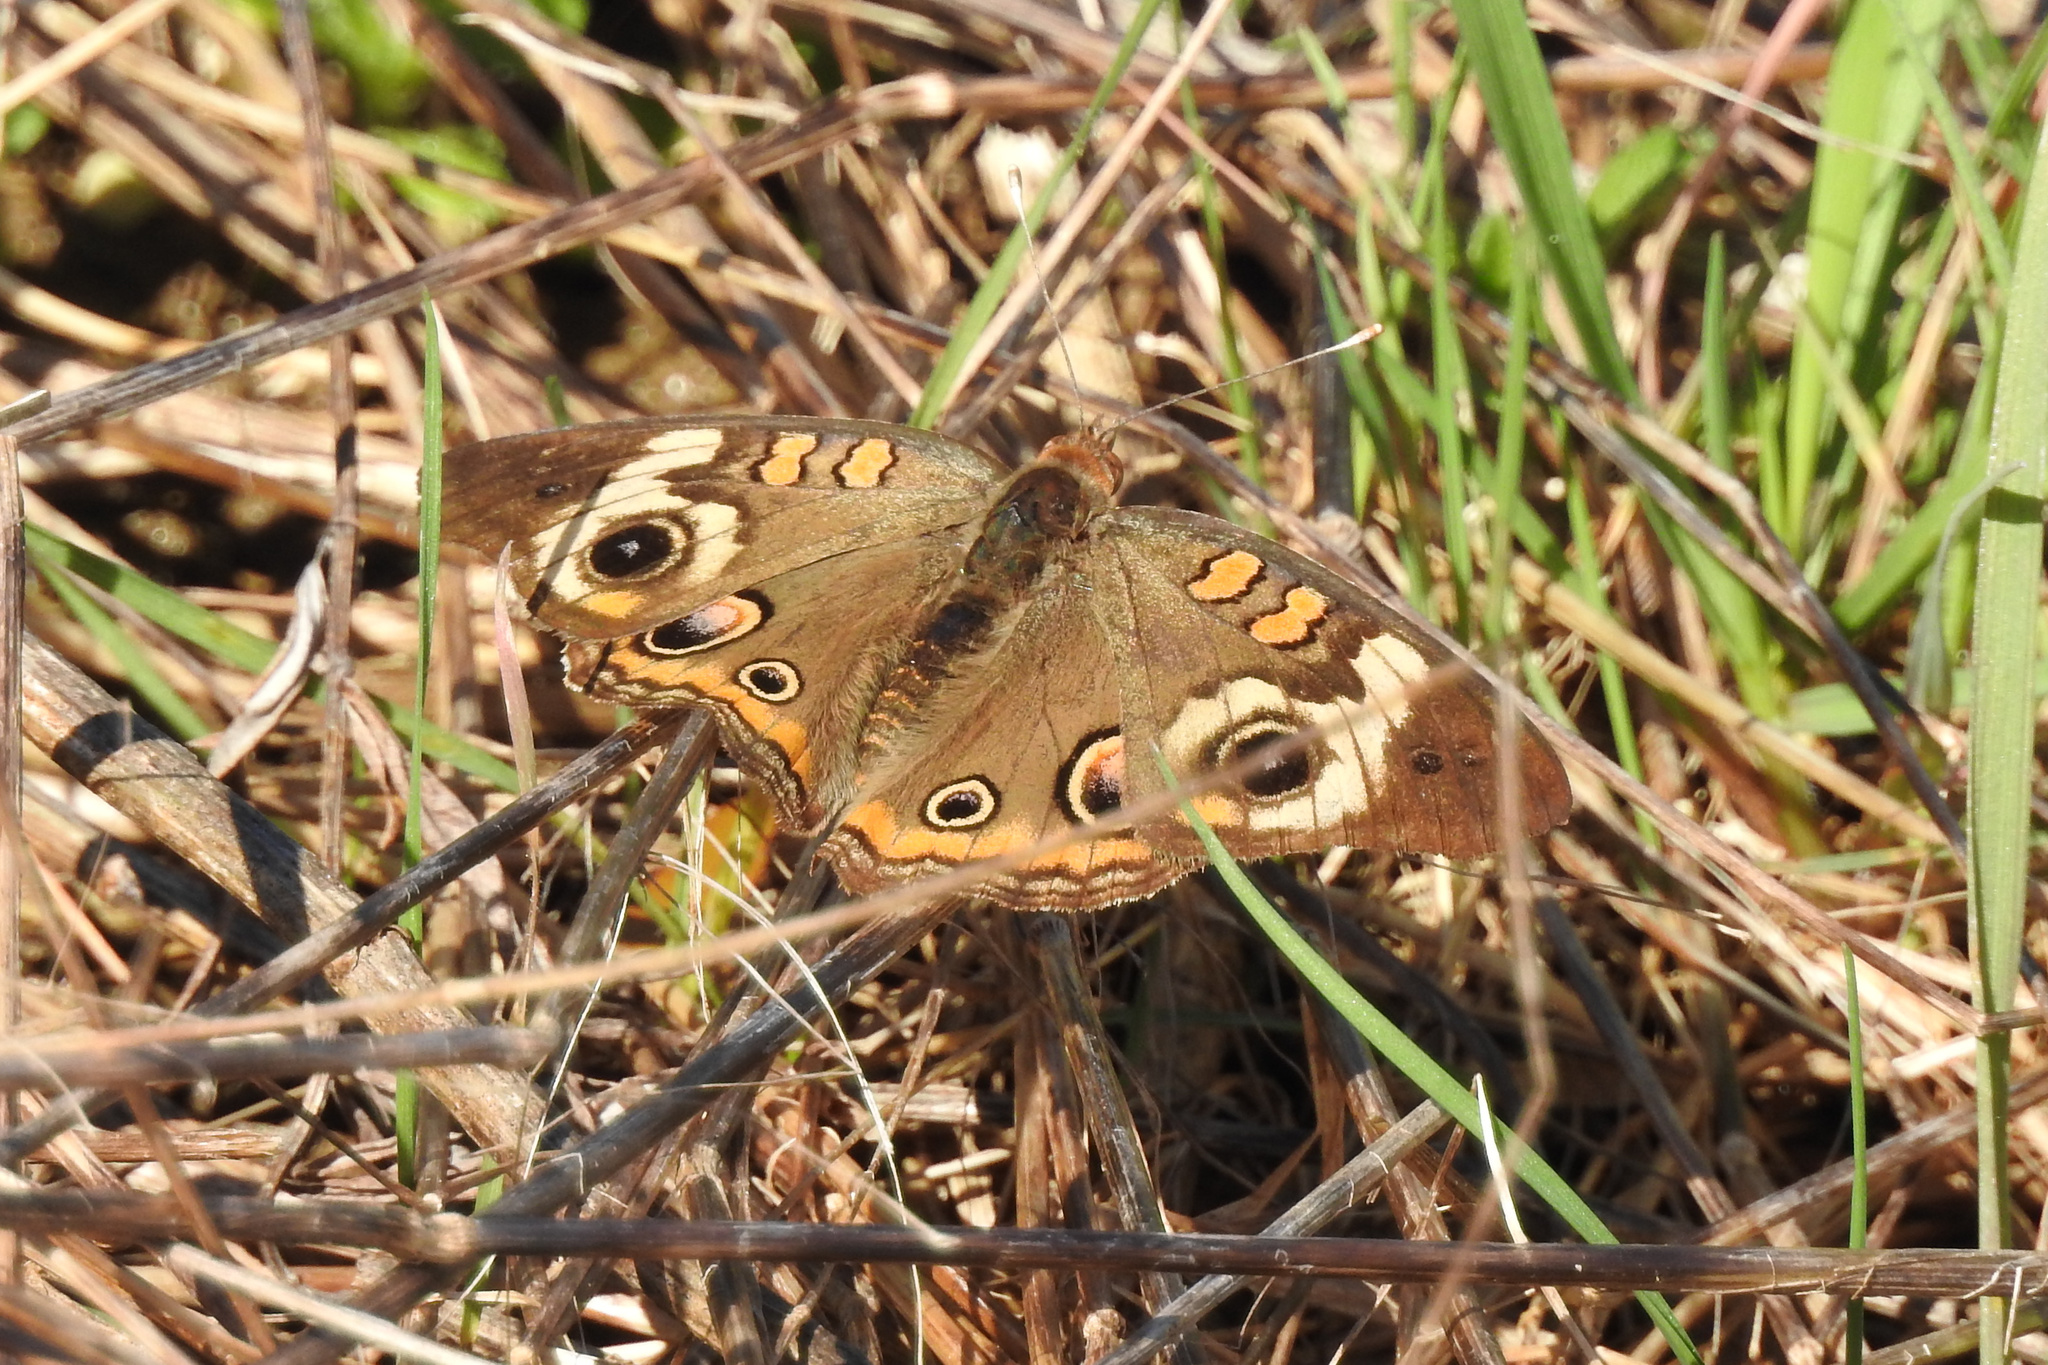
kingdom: Animalia
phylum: Arthropoda
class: Insecta
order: Lepidoptera
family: Nymphalidae
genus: Junonia
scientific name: Junonia coenia
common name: Common buckeye
